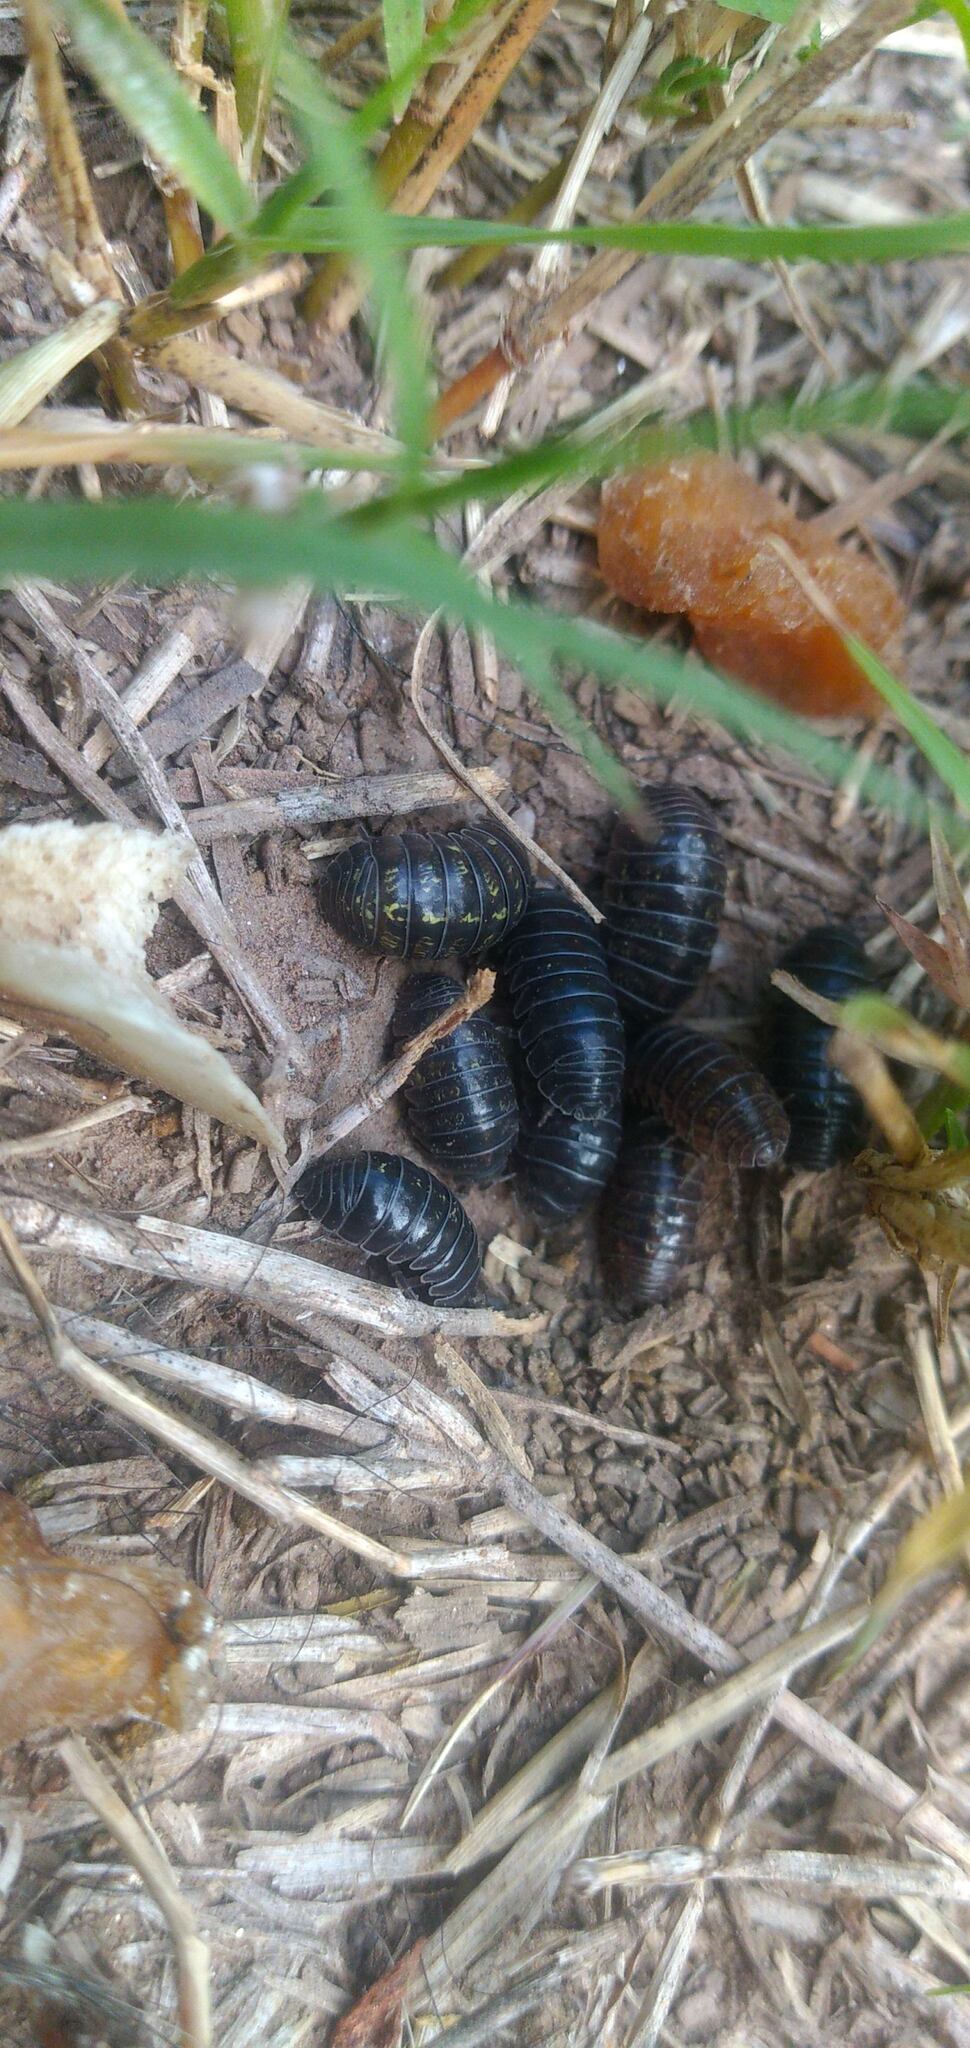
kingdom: Animalia
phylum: Arthropoda
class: Malacostraca
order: Isopoda
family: Armadillidiidae
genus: Armadillidium
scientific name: Armadillidium vulgare
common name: Common pill woodlouse
